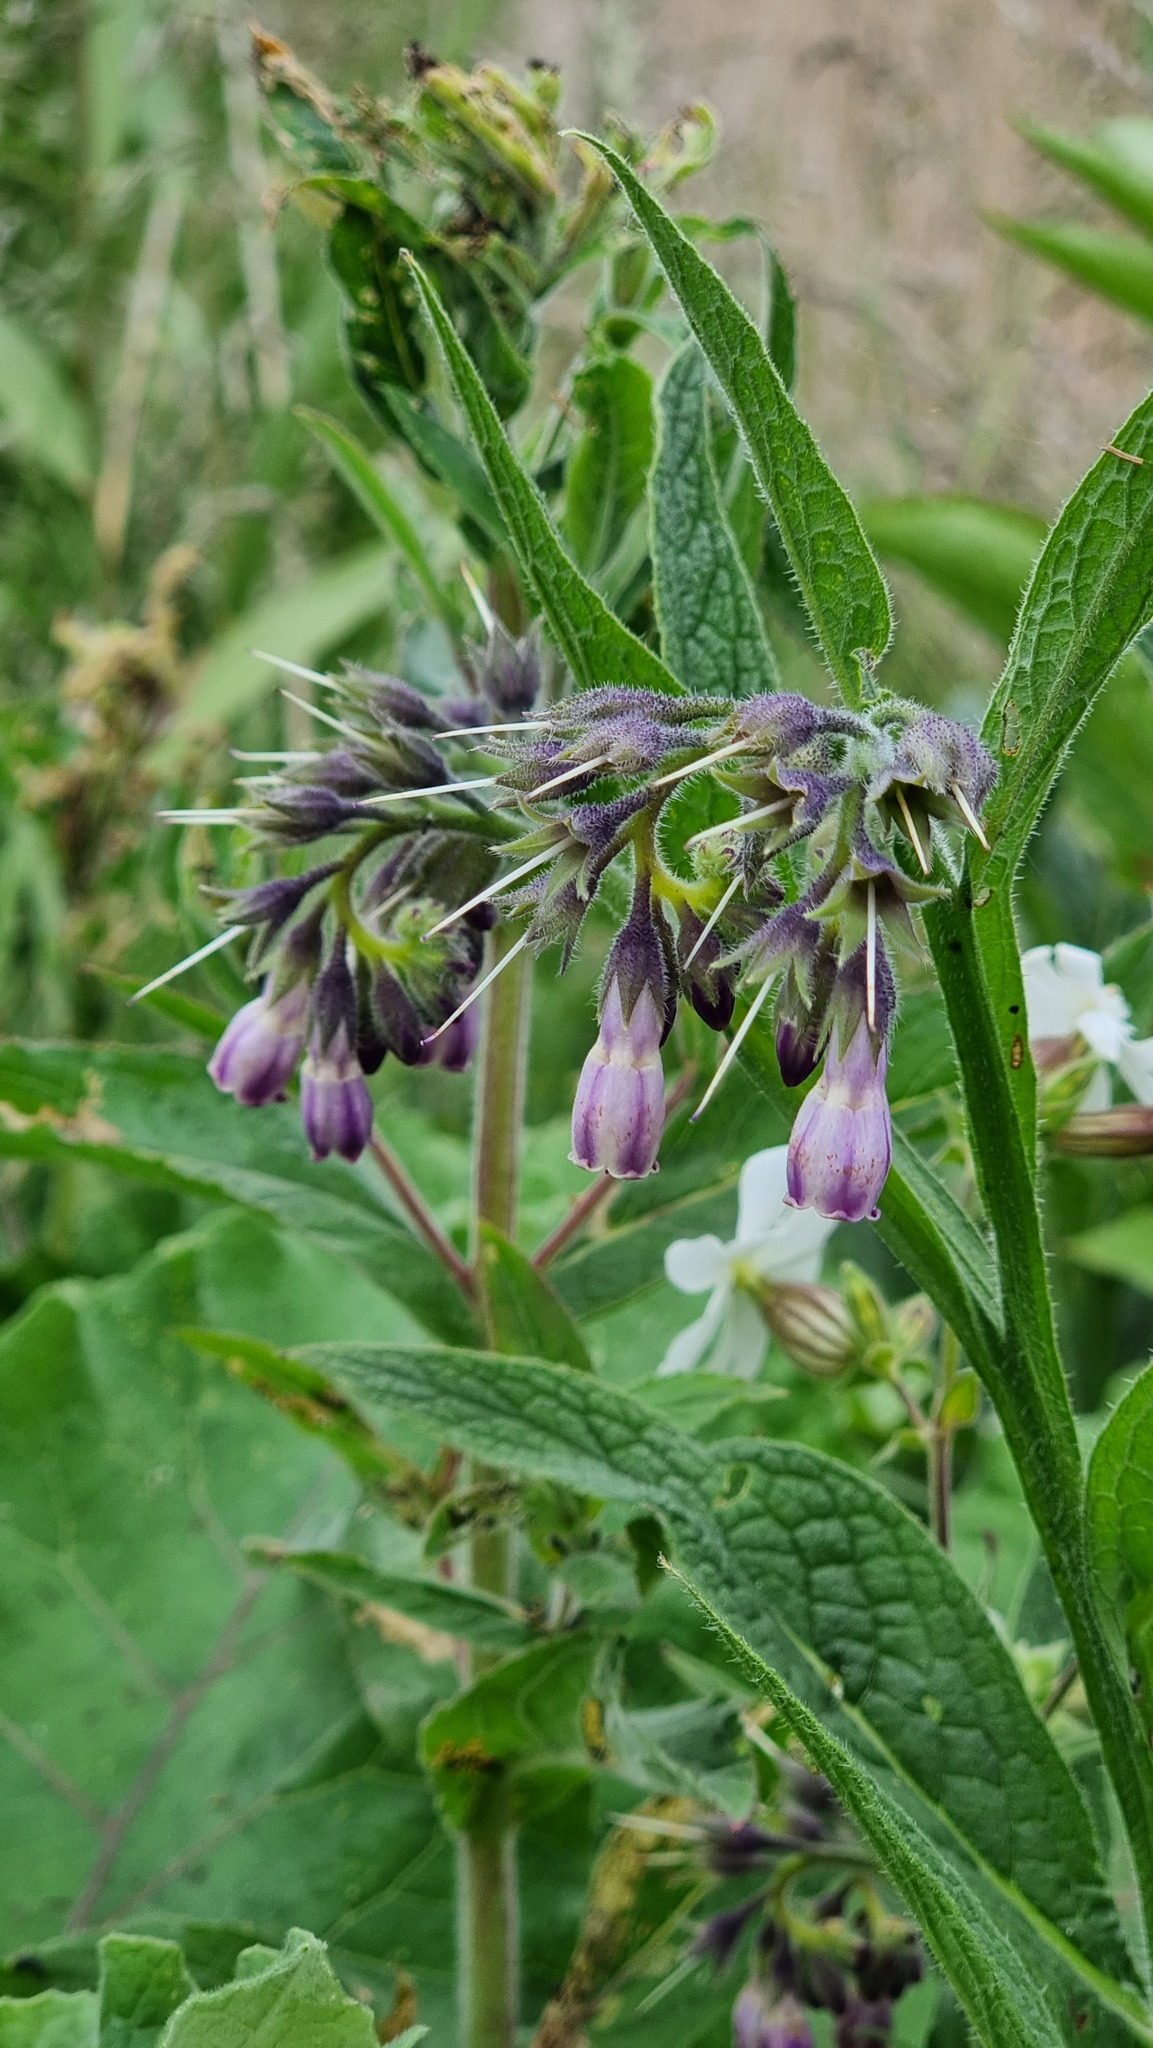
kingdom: Plantae
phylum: Tracheophyta
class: Magnoliopsida
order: Boraginales
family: Boraginaceae
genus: Symphytum
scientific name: Symphytum officinale
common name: Common comfrey
